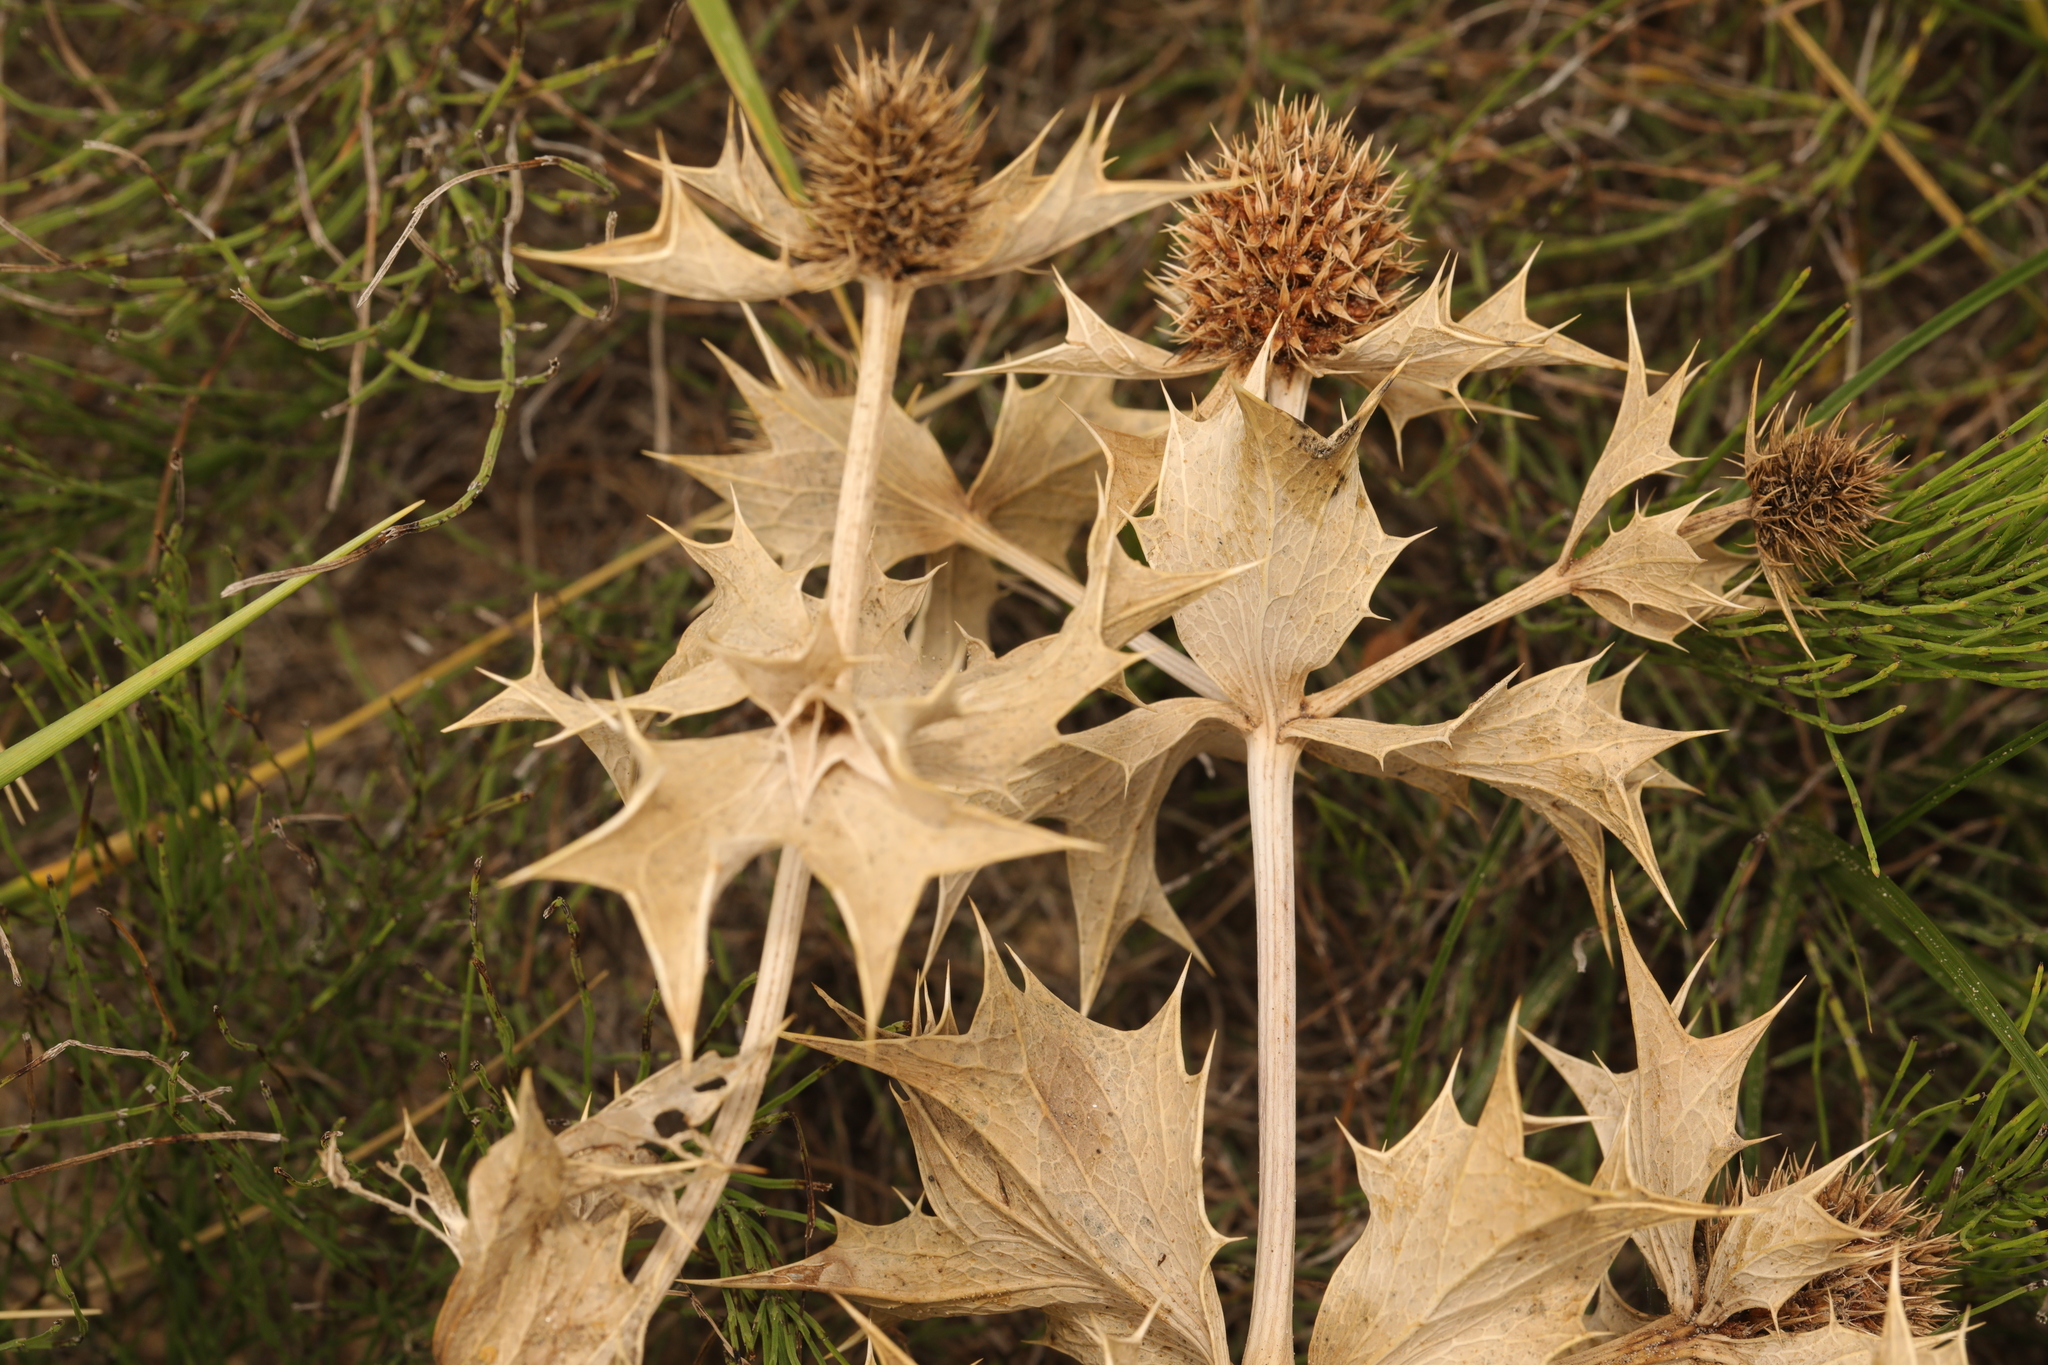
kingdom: Plantae
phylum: Tracheophyta
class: Magnoliopsida
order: Apiales
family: Apiaceae
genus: Eryngium
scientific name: Eryngium maritimum
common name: Sea-holly
